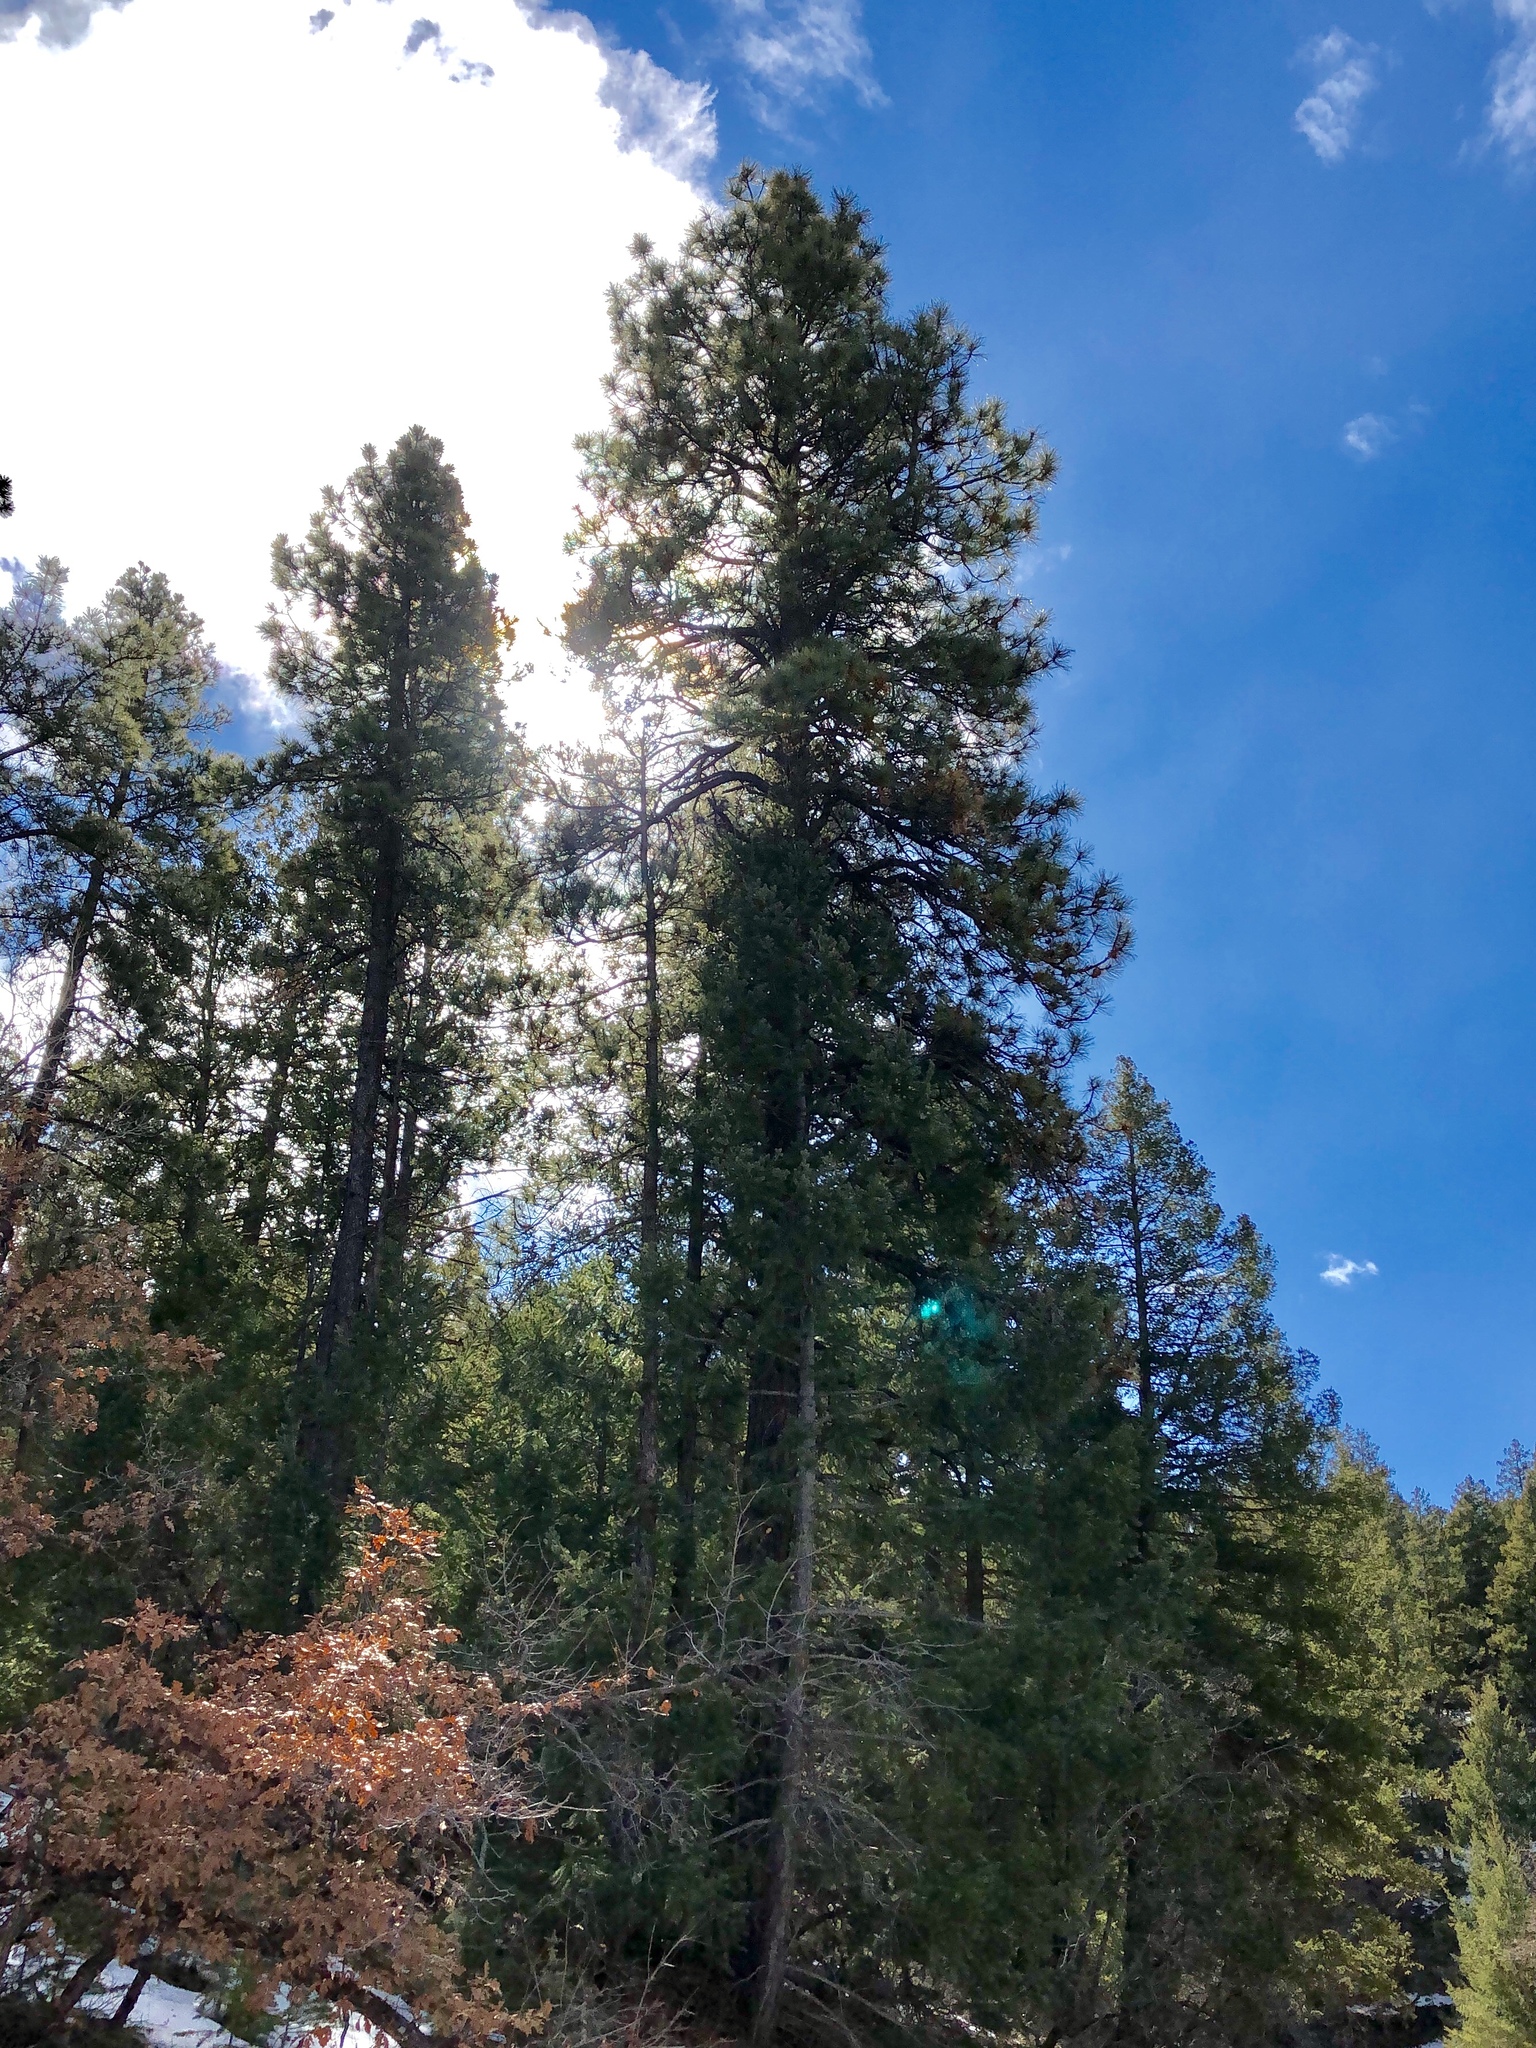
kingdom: Plantae
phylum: Tracheophyta
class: Pinopsida
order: Pinales
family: Pinaceae
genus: Pinus
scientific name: Pinus ponderosa
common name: Western yellow-pine
